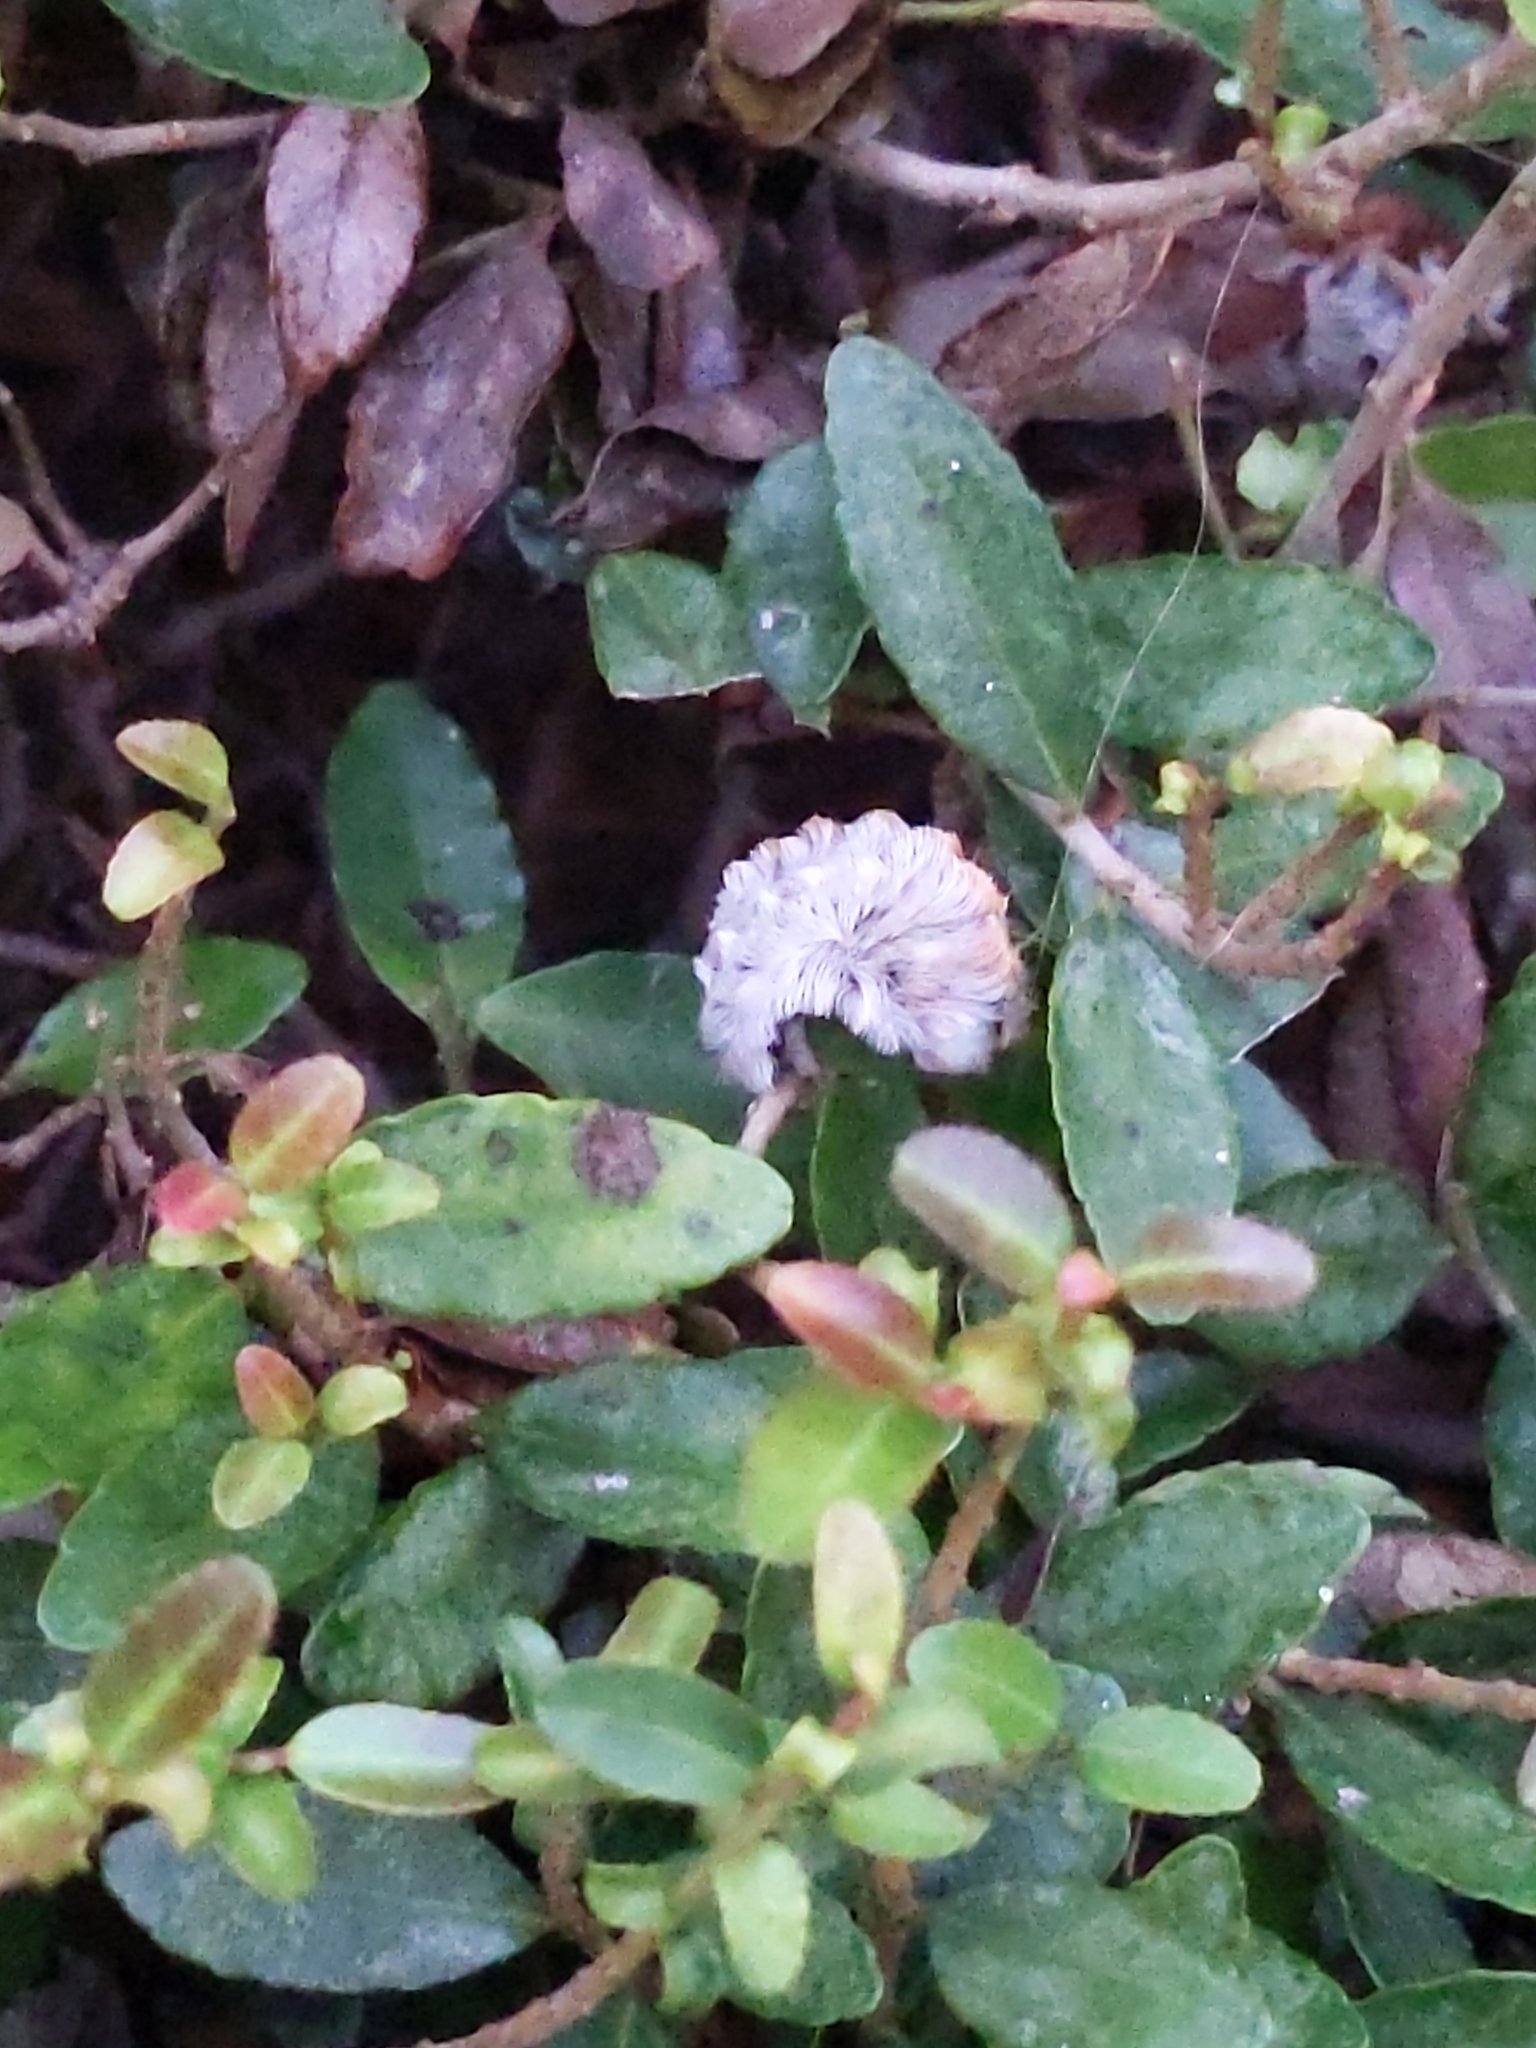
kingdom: Animalia
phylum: Arthropoda
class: Insecta
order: Lepidoptera
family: Megalopygidae
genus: Megalopyge
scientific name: Megalopyge opercularis
